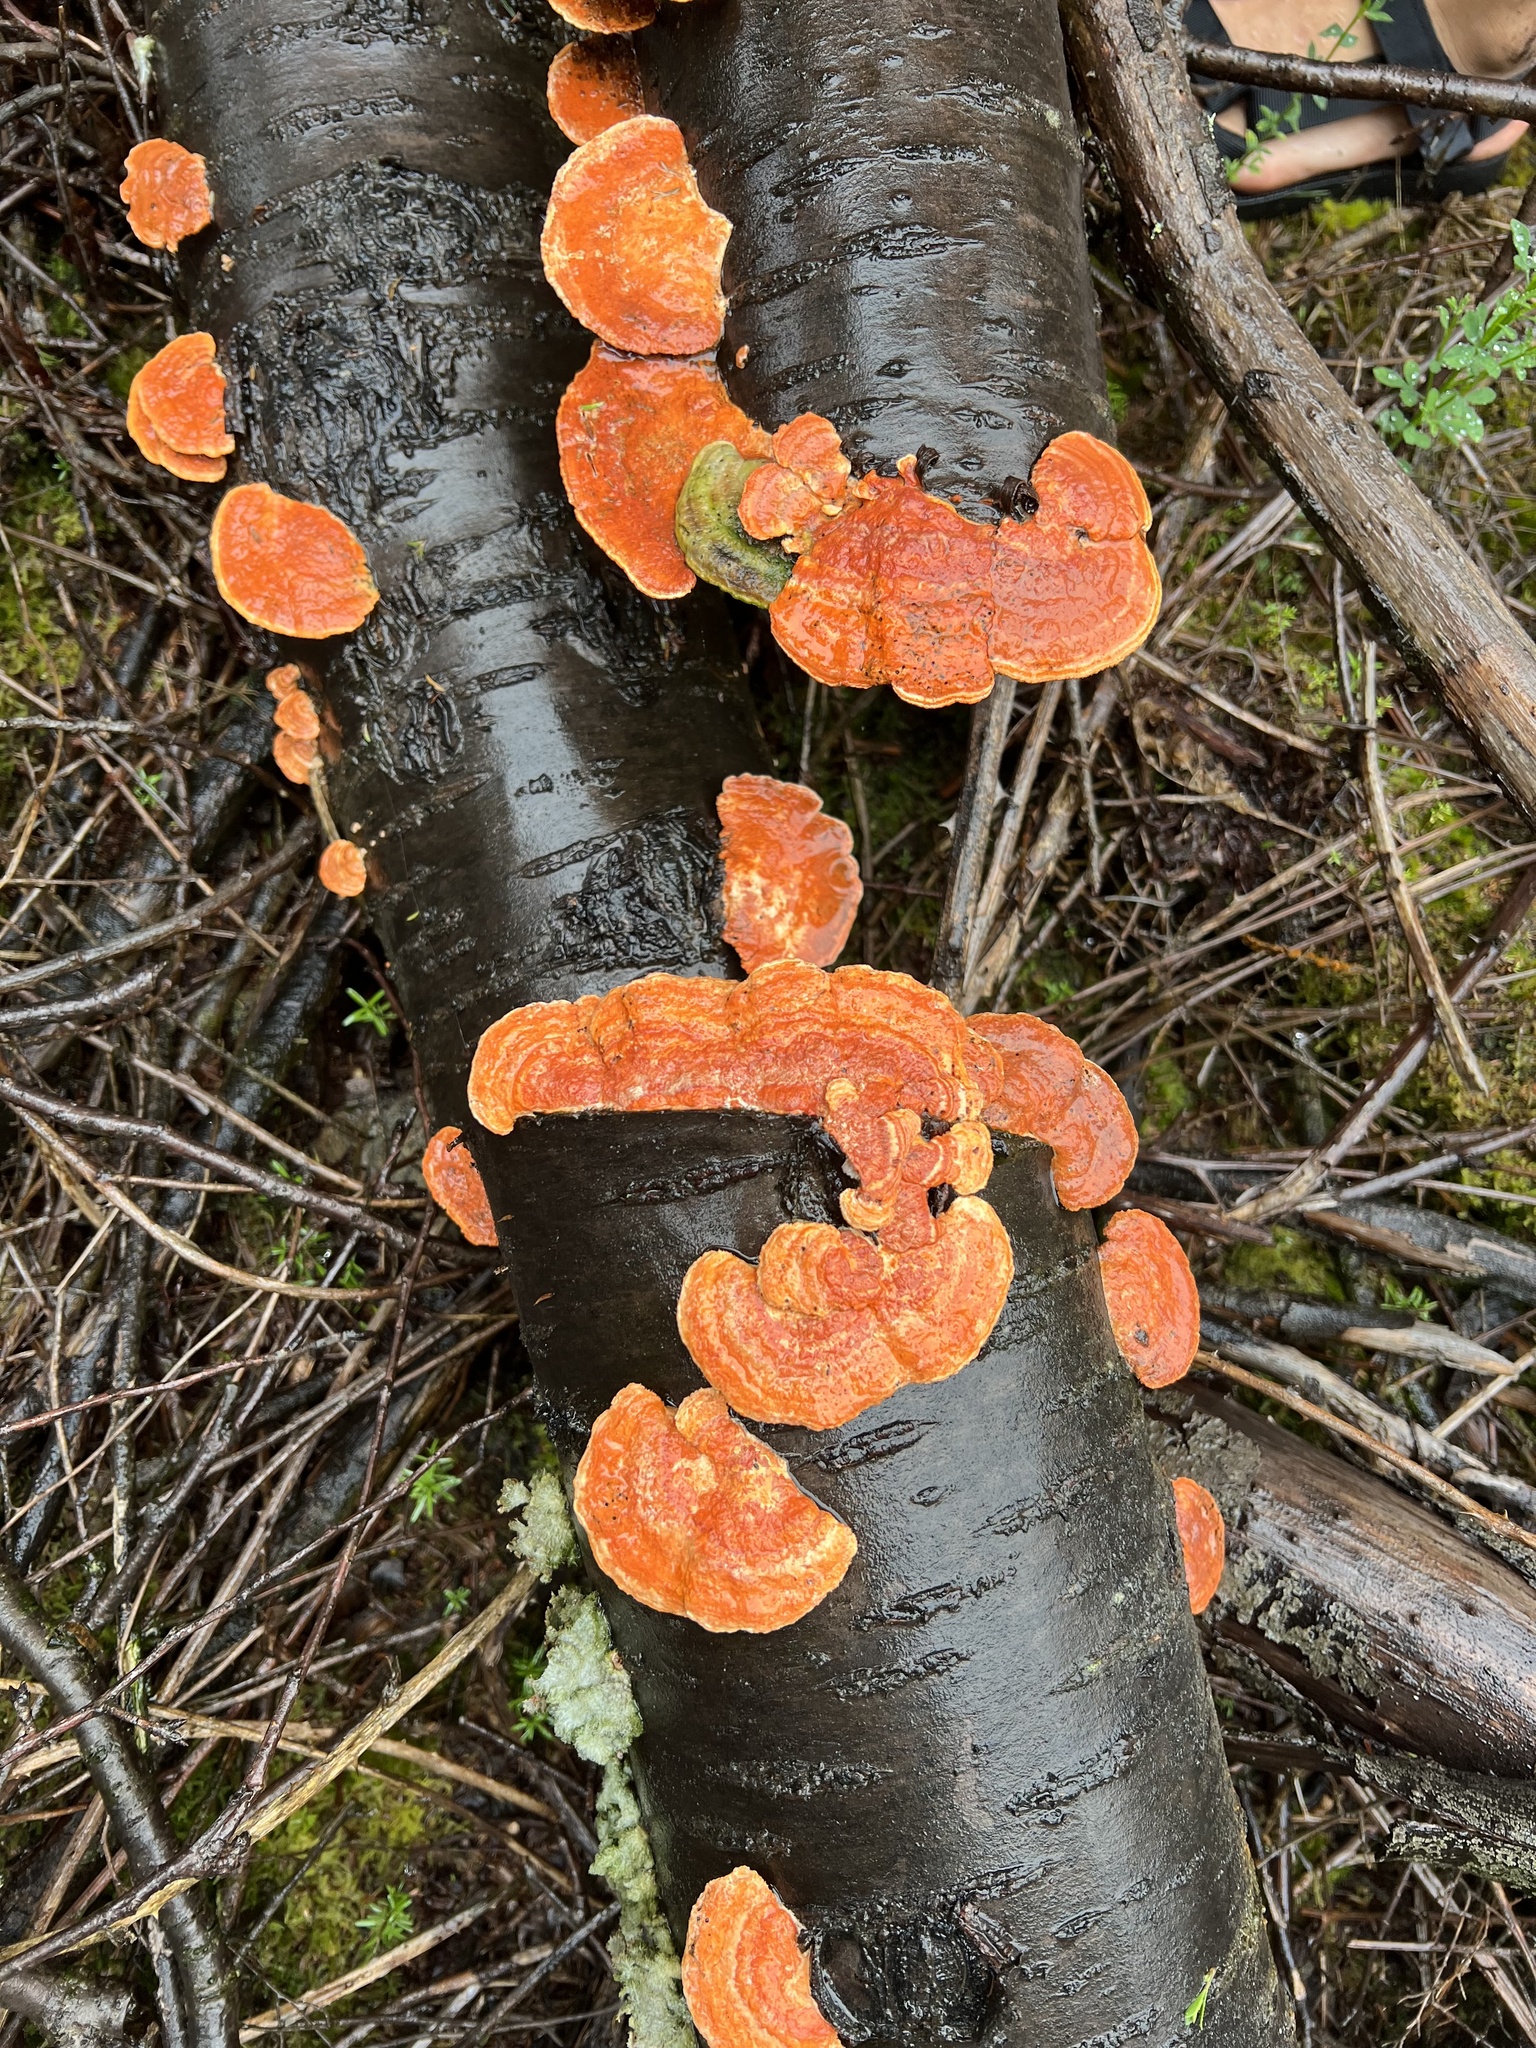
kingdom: Fungi
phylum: Basidiomycota
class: Agaricomycetes
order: Polyporales
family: Polyporaceae
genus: Trametes
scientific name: Trametes coccinea
